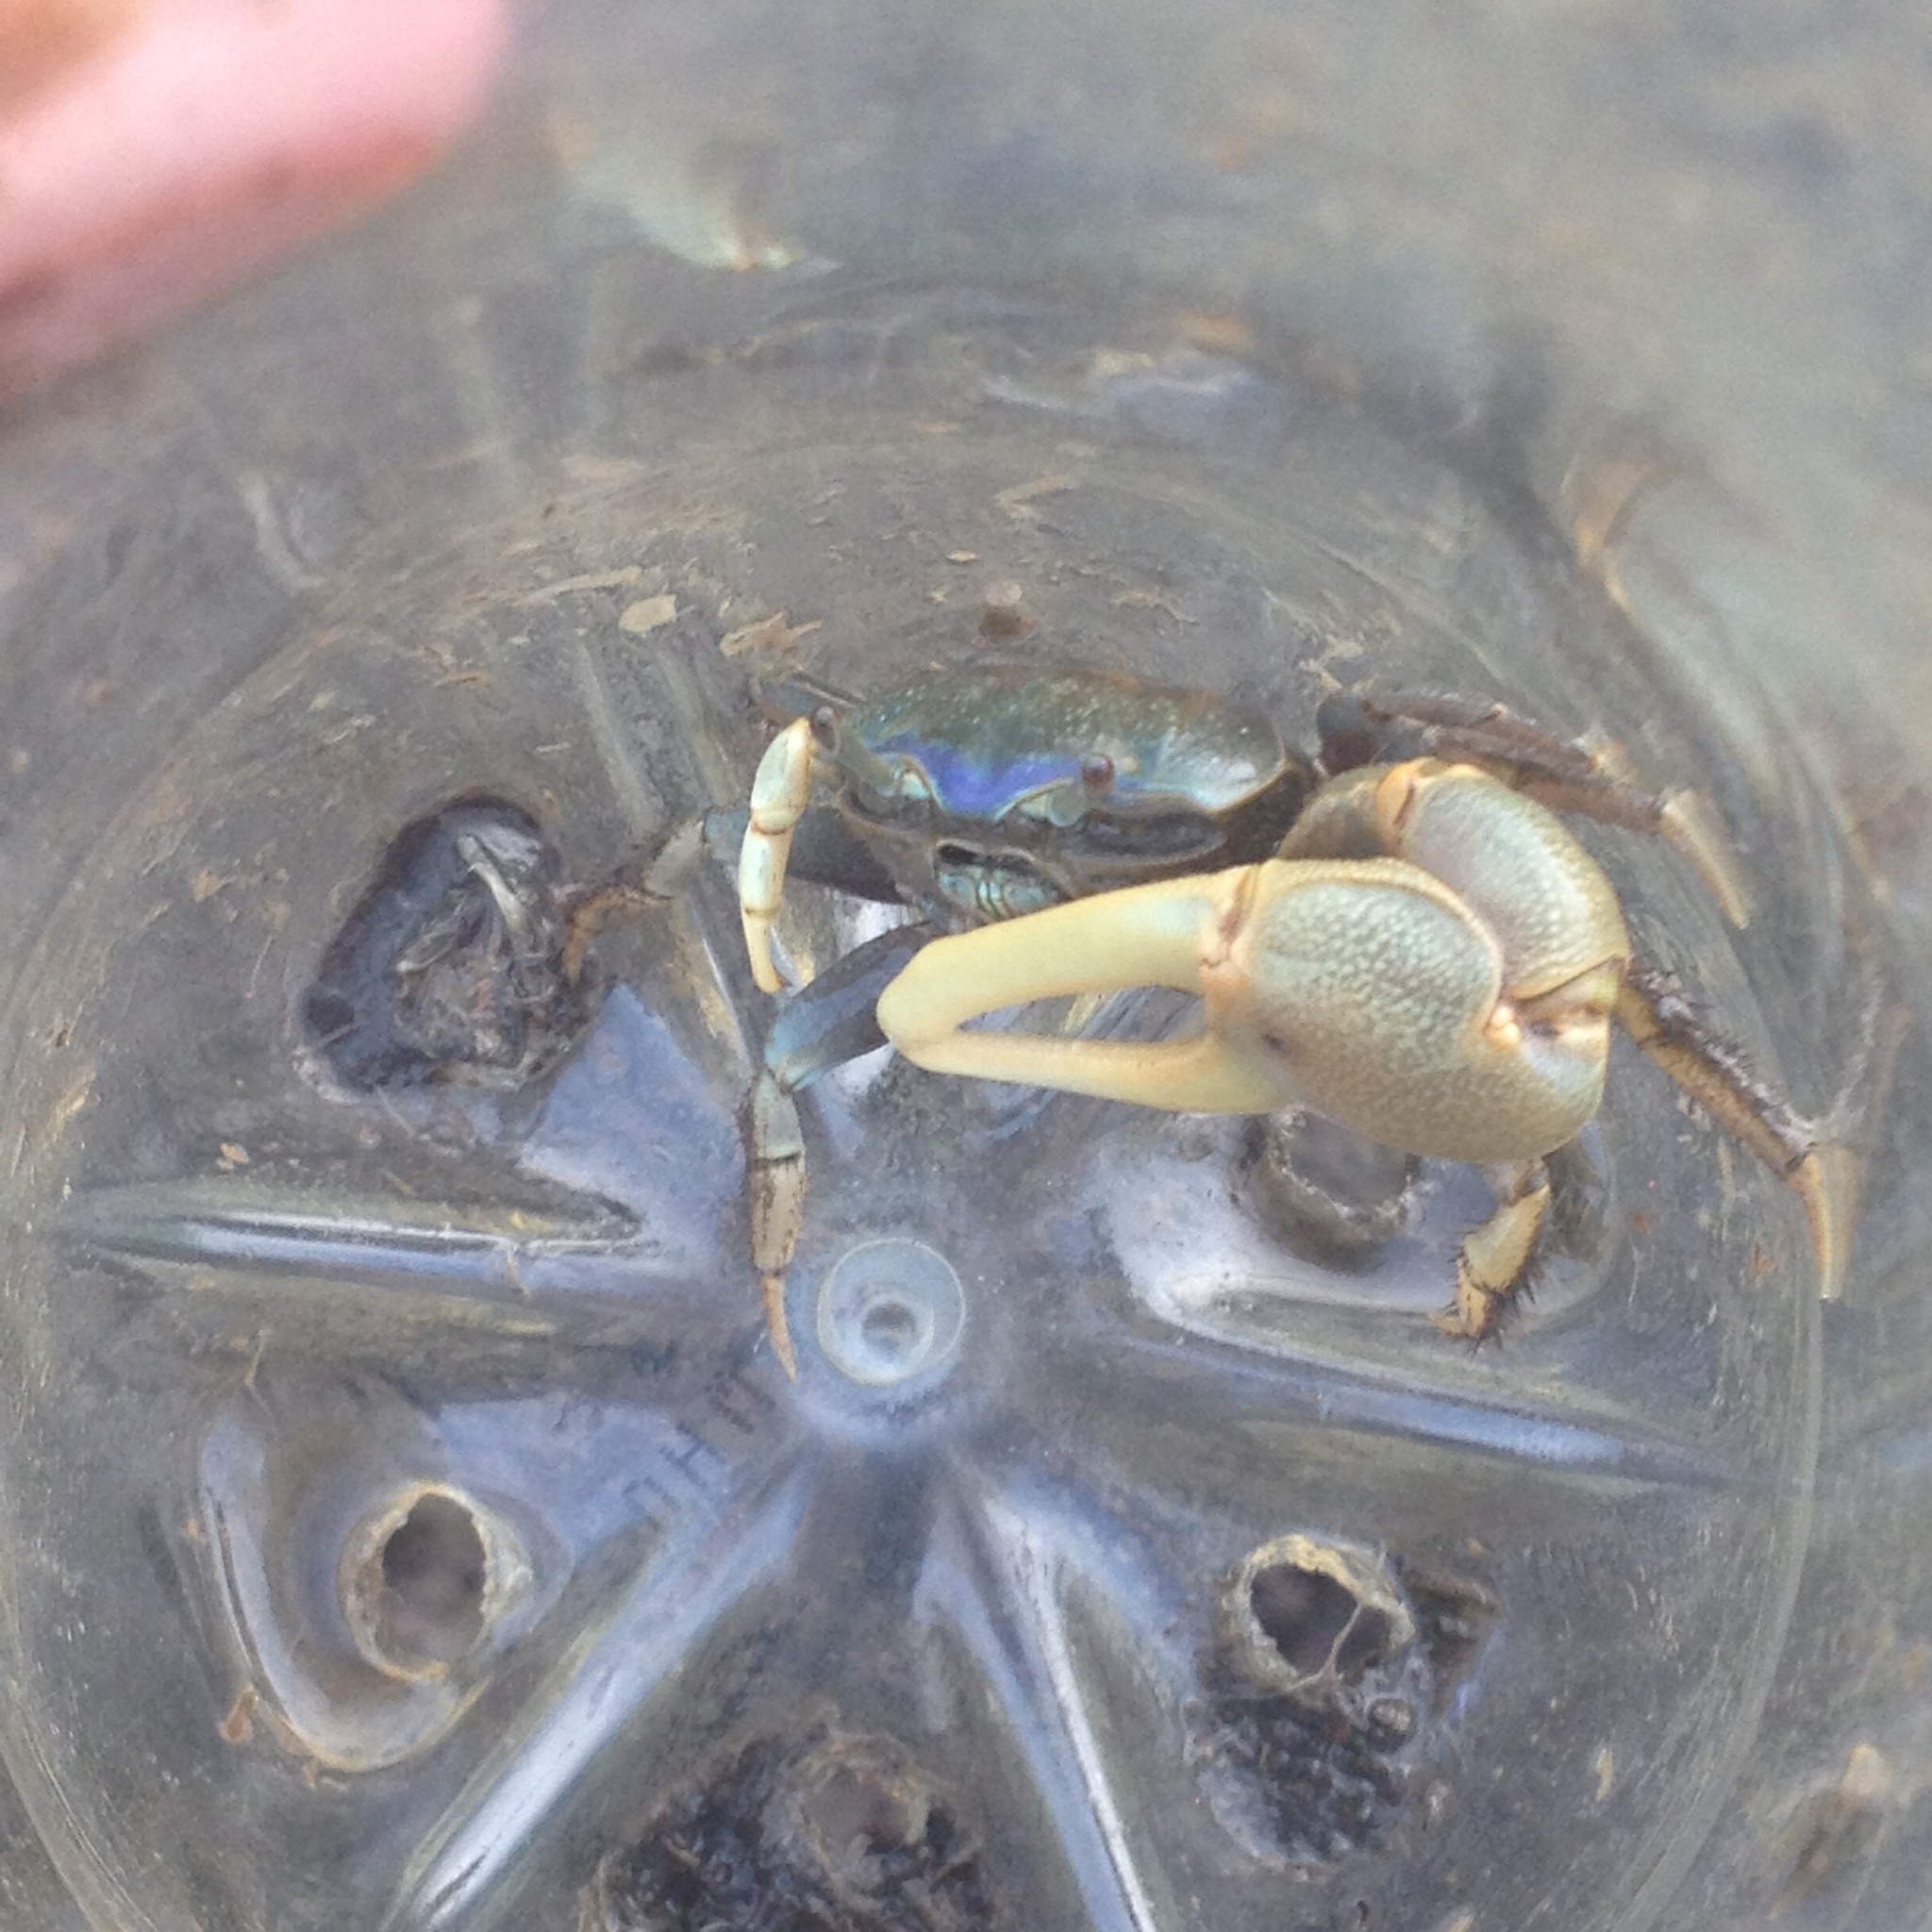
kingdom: Animalia
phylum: Arthropoda
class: Malacostraca
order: Decapoda
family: Ocypodidae
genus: Minuca
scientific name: Minuca pugnax
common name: Mud fiddler crab
